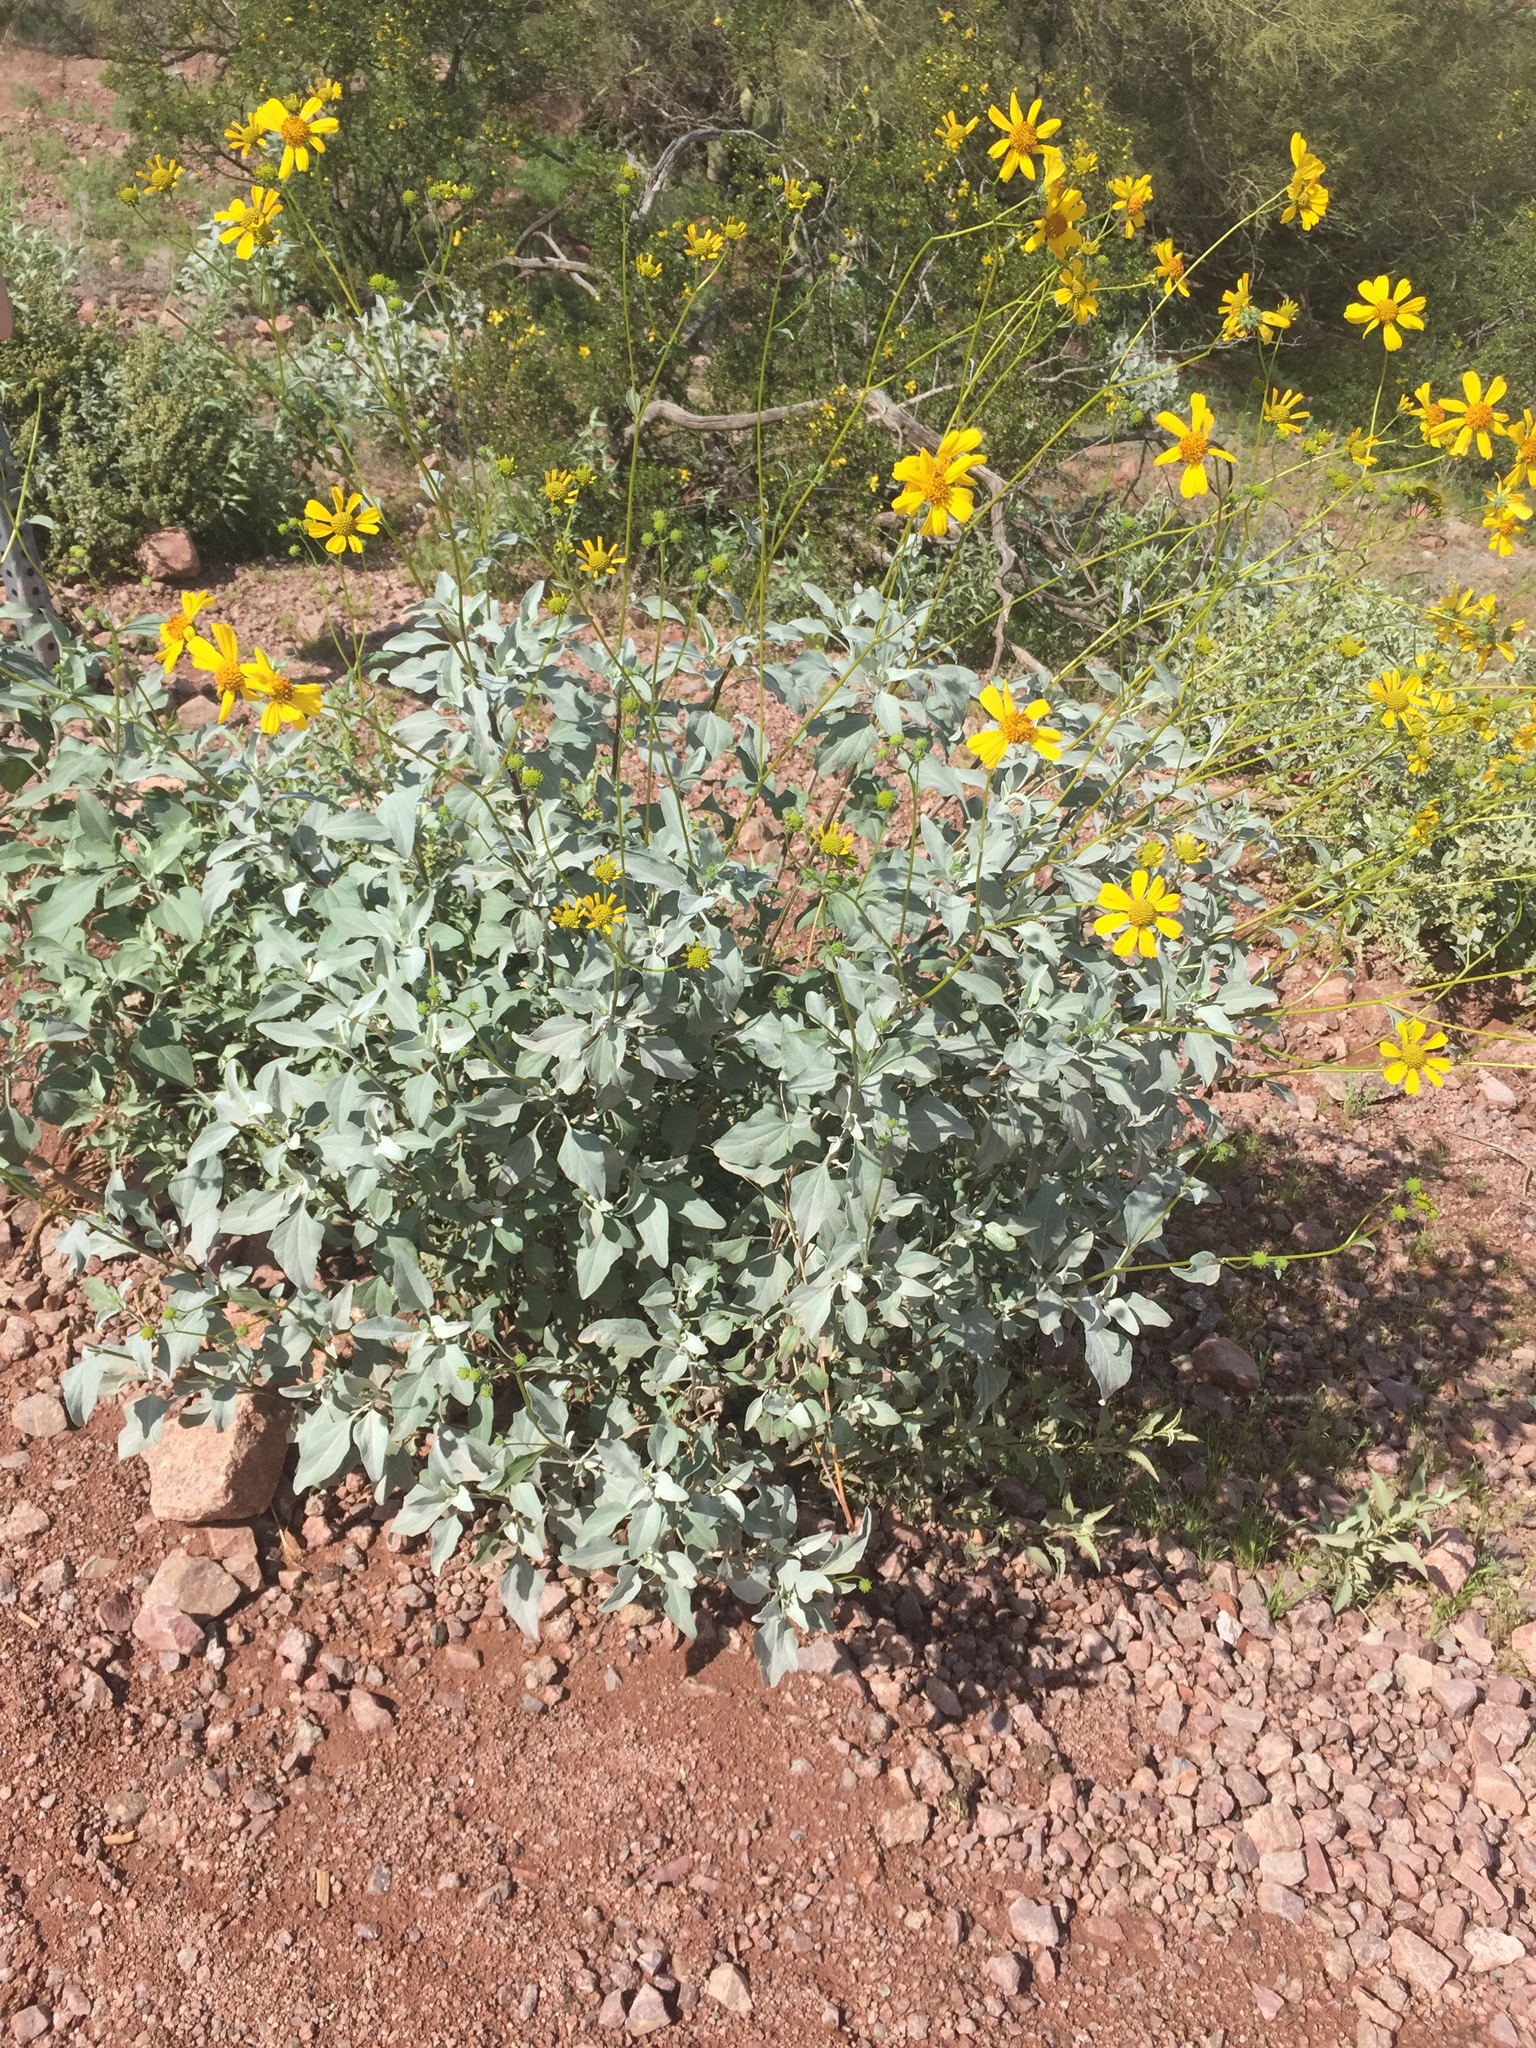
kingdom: Plantae
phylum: Tracheophyta
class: Magnoliopsida
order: Asterales
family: Asteraceae
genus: Encelia
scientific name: Encelia farinosa
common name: Brittlebush
